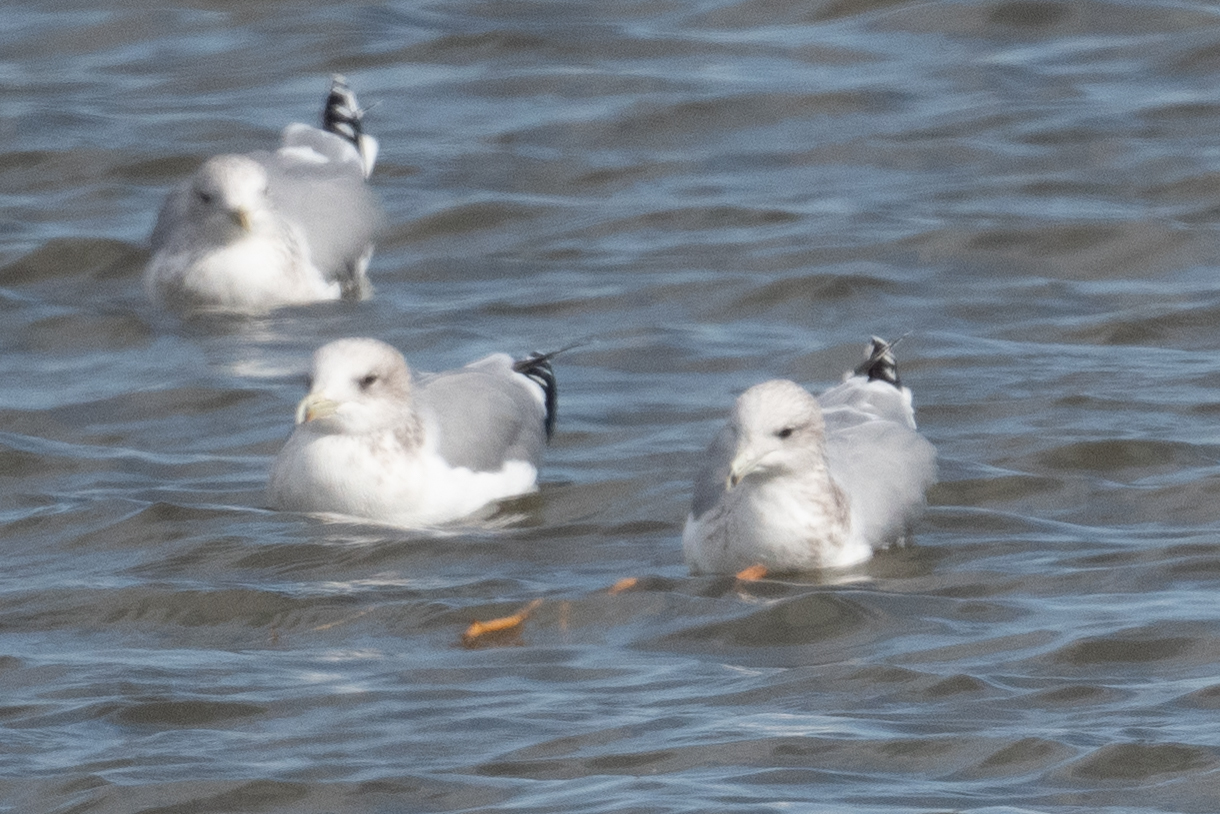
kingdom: Animalia
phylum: Chordata
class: Aves
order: Charadriiformes
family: Laridae
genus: Larus
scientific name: Larus californicus
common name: California gull
